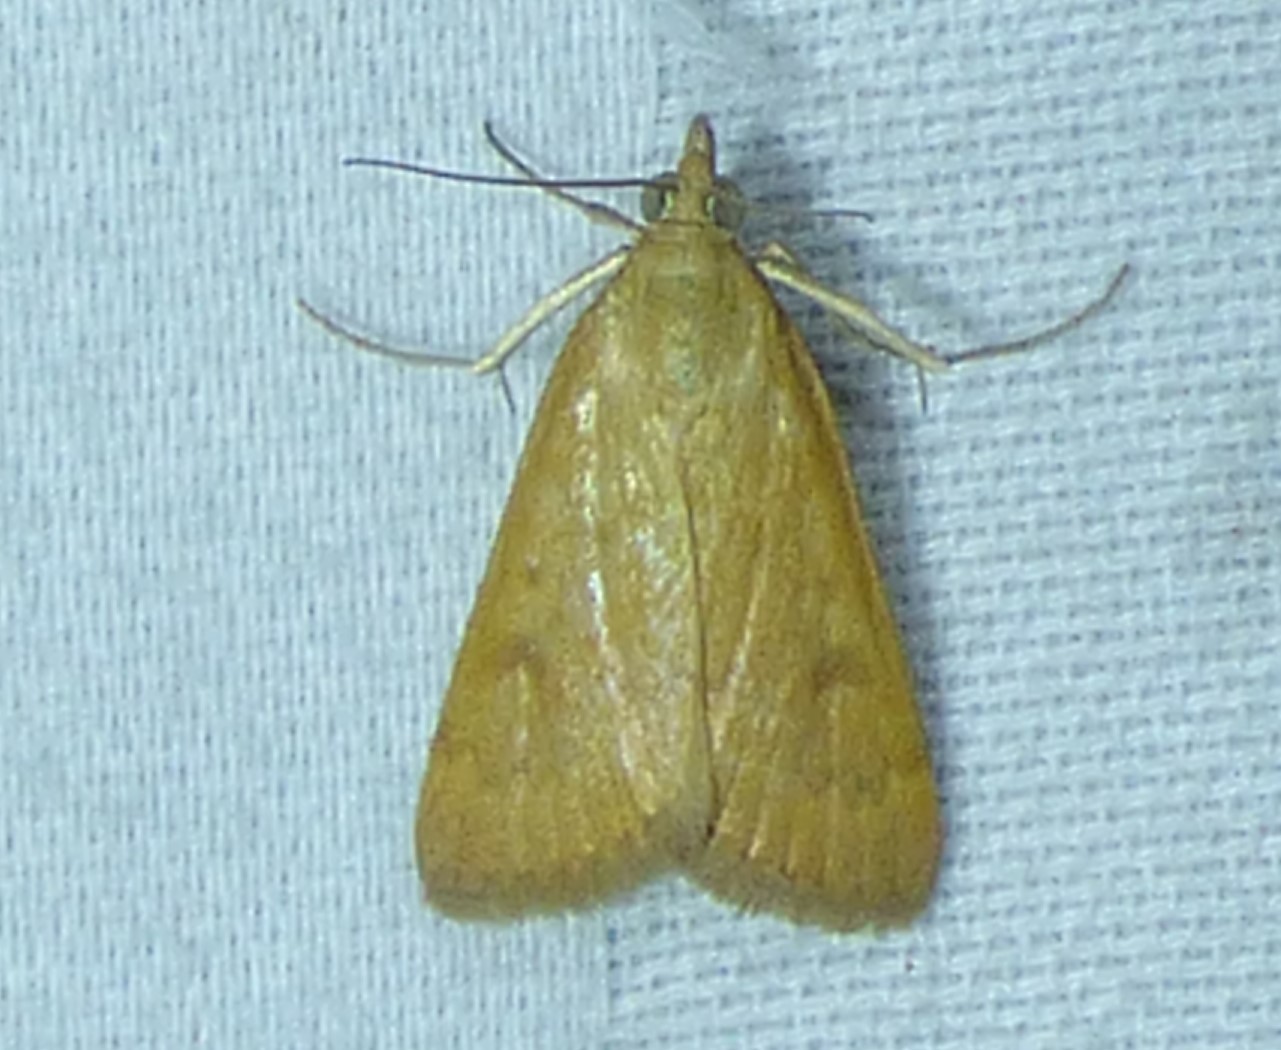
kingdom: Animalia
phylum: Arthropoda
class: Insecta
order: Lepidoptera
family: Crambidae
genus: Achyra
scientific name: Achyra rantalis
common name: Garden webworm
